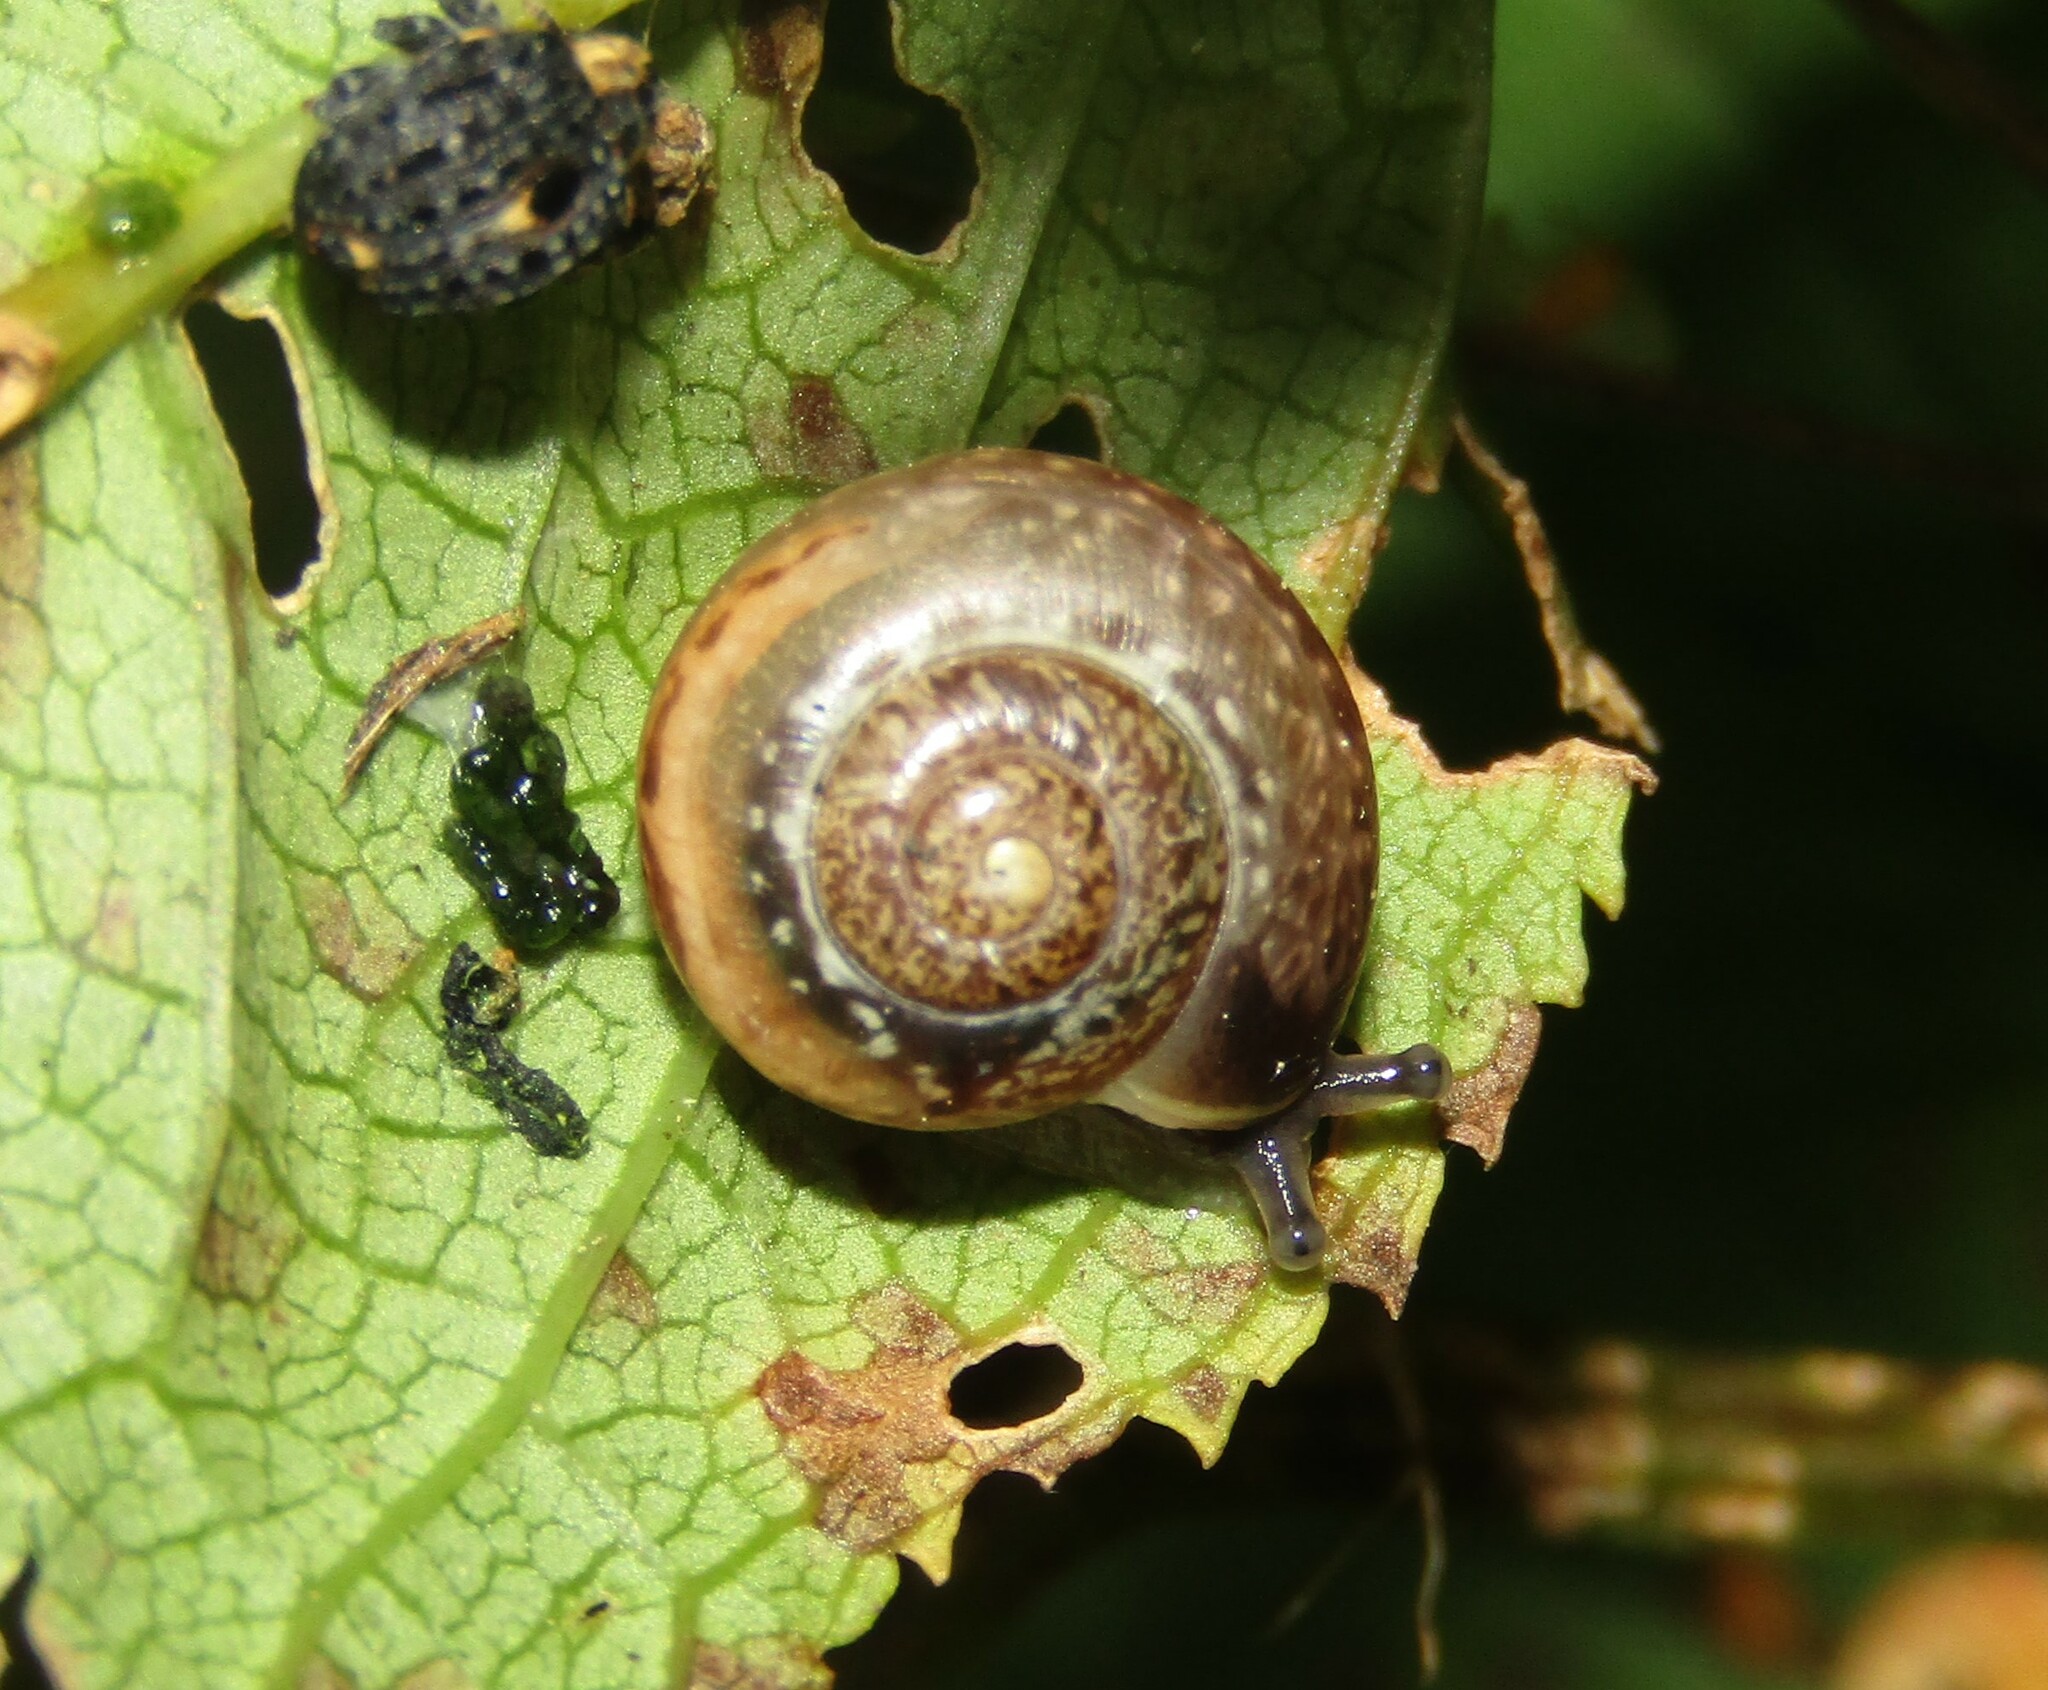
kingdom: Animalia
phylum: Mollusca
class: Gastropoda
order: Stylommatophora
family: Camaenidae
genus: Fruticicola
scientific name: Fruticicola fruticum
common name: Bush snail
